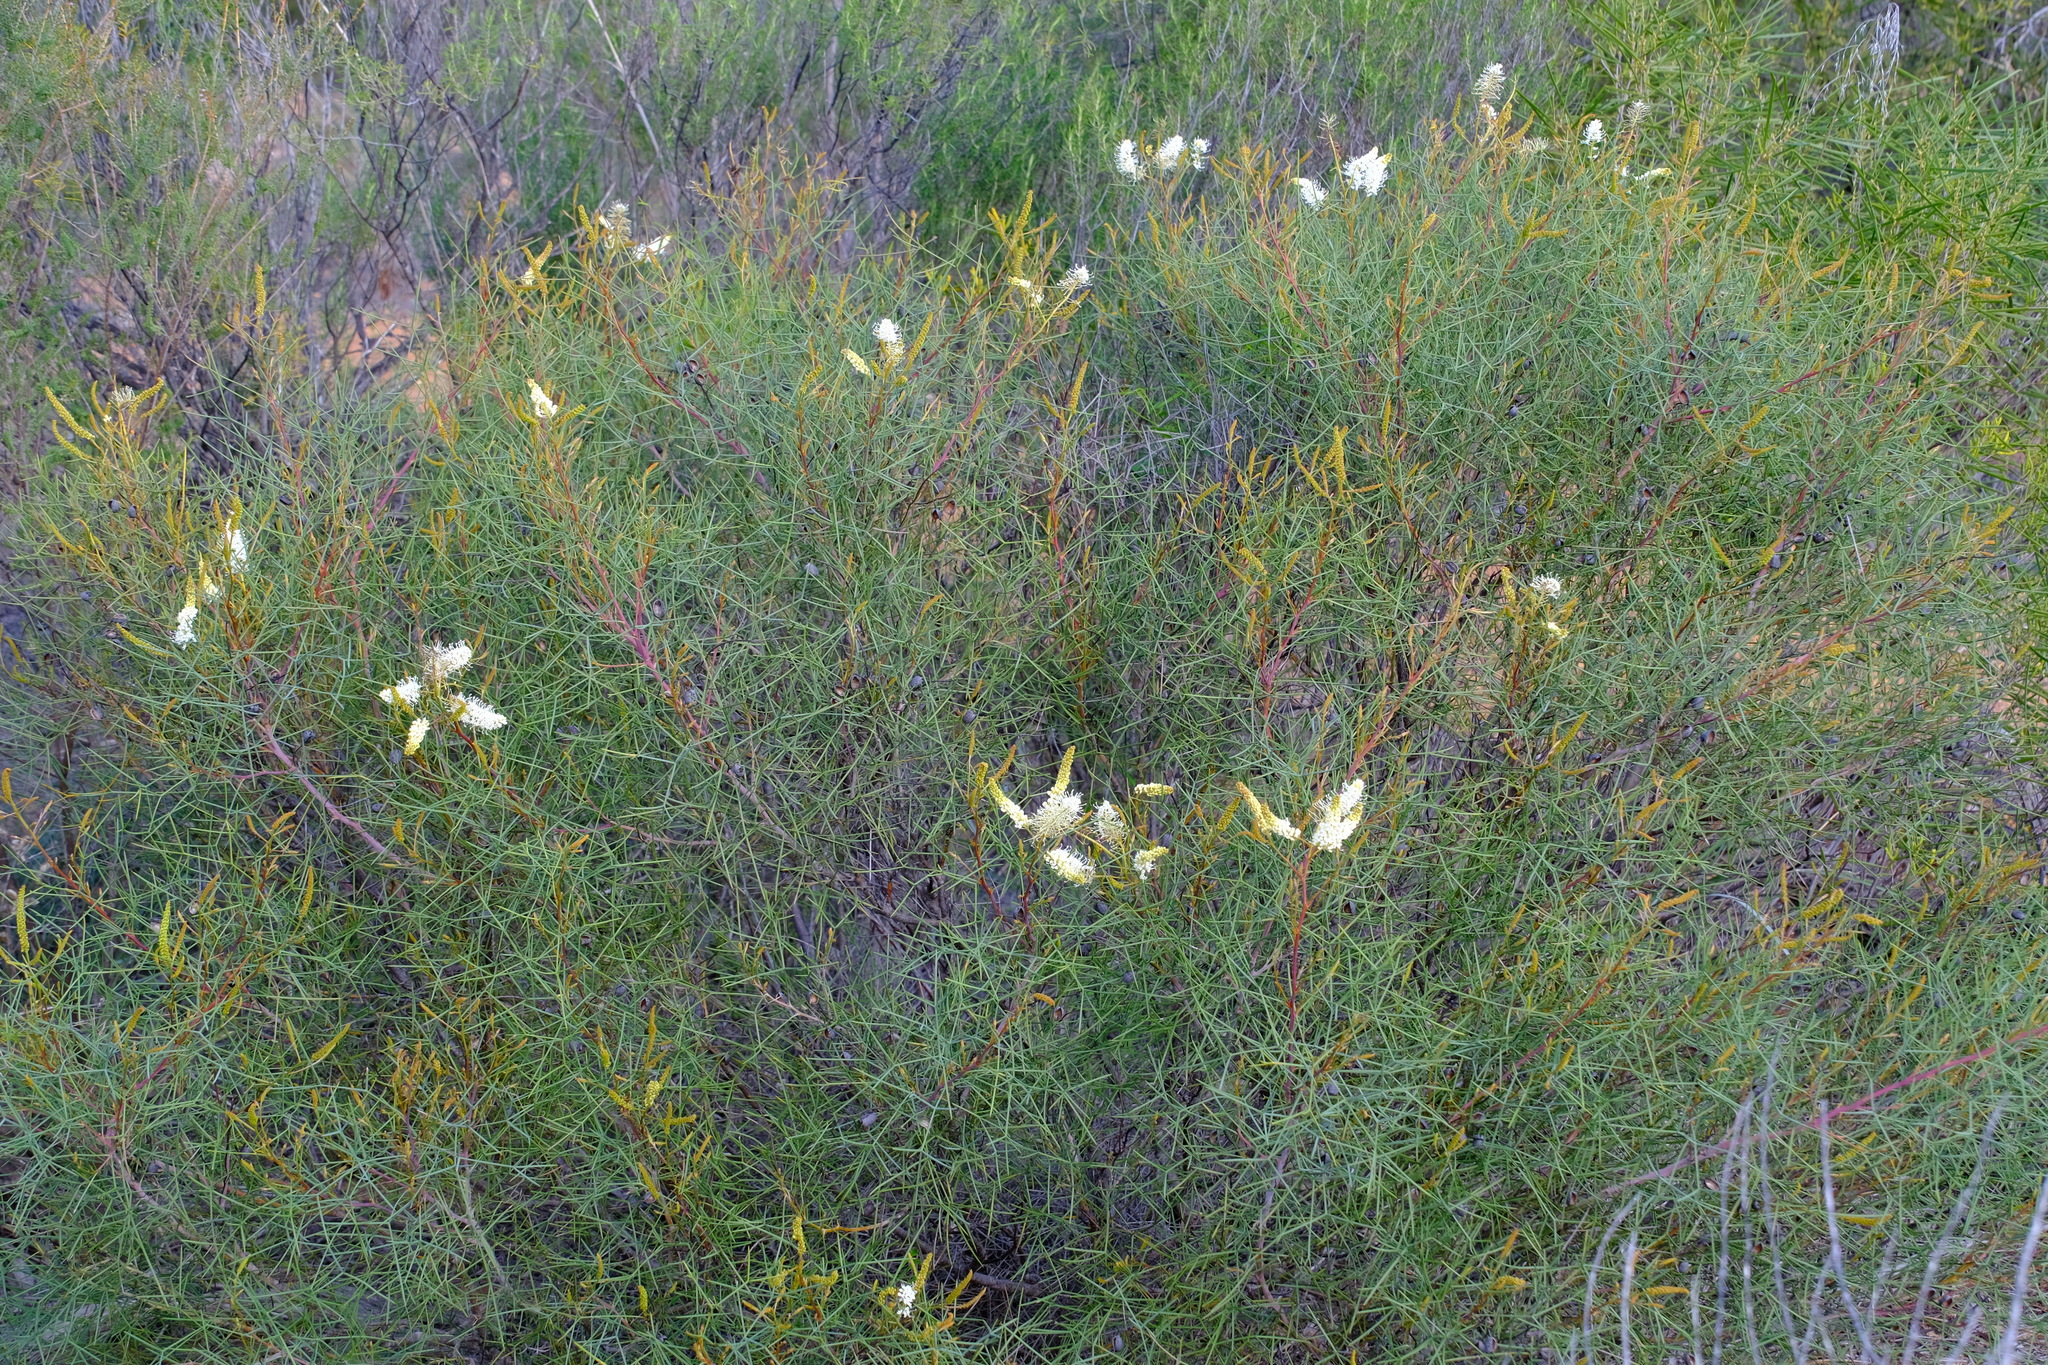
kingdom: Plantae
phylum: Tracheophyta
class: Magnoliopsida
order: Proteales
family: Proteaceae
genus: Grevillea
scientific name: Grevillea leucoclada
